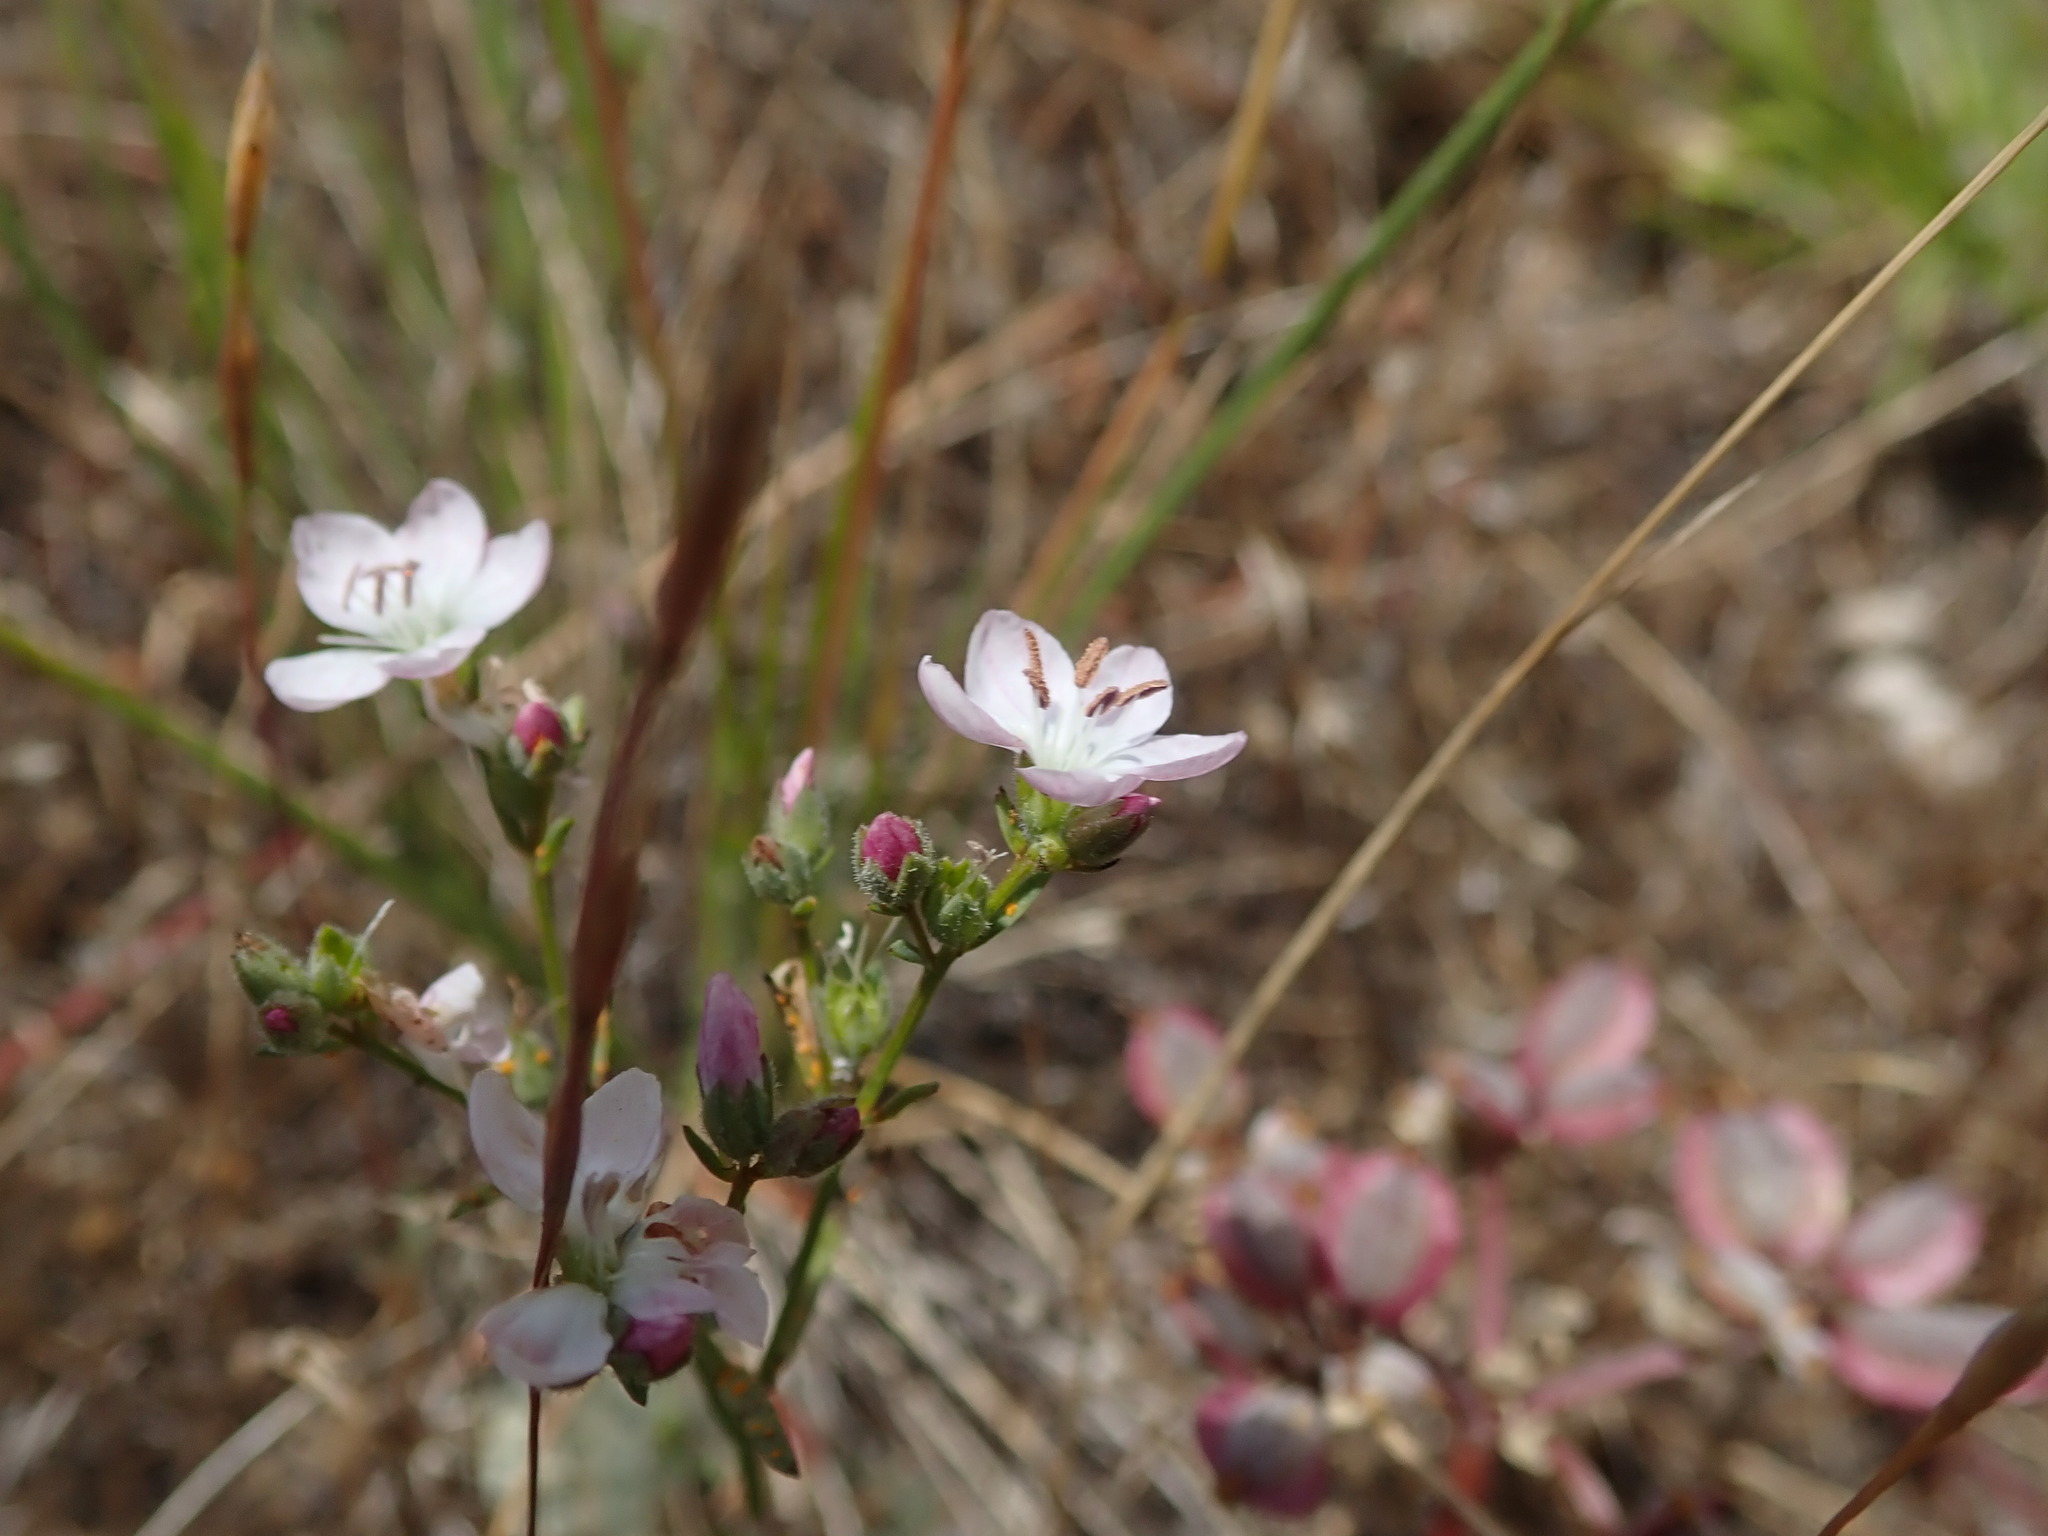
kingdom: Plantae
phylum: Tracheophyta
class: Magnoliopsida
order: Malpighiales
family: Linaceae
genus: Hesperolinon
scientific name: Hesperolinon congestum
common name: Marin dwarf-flax
